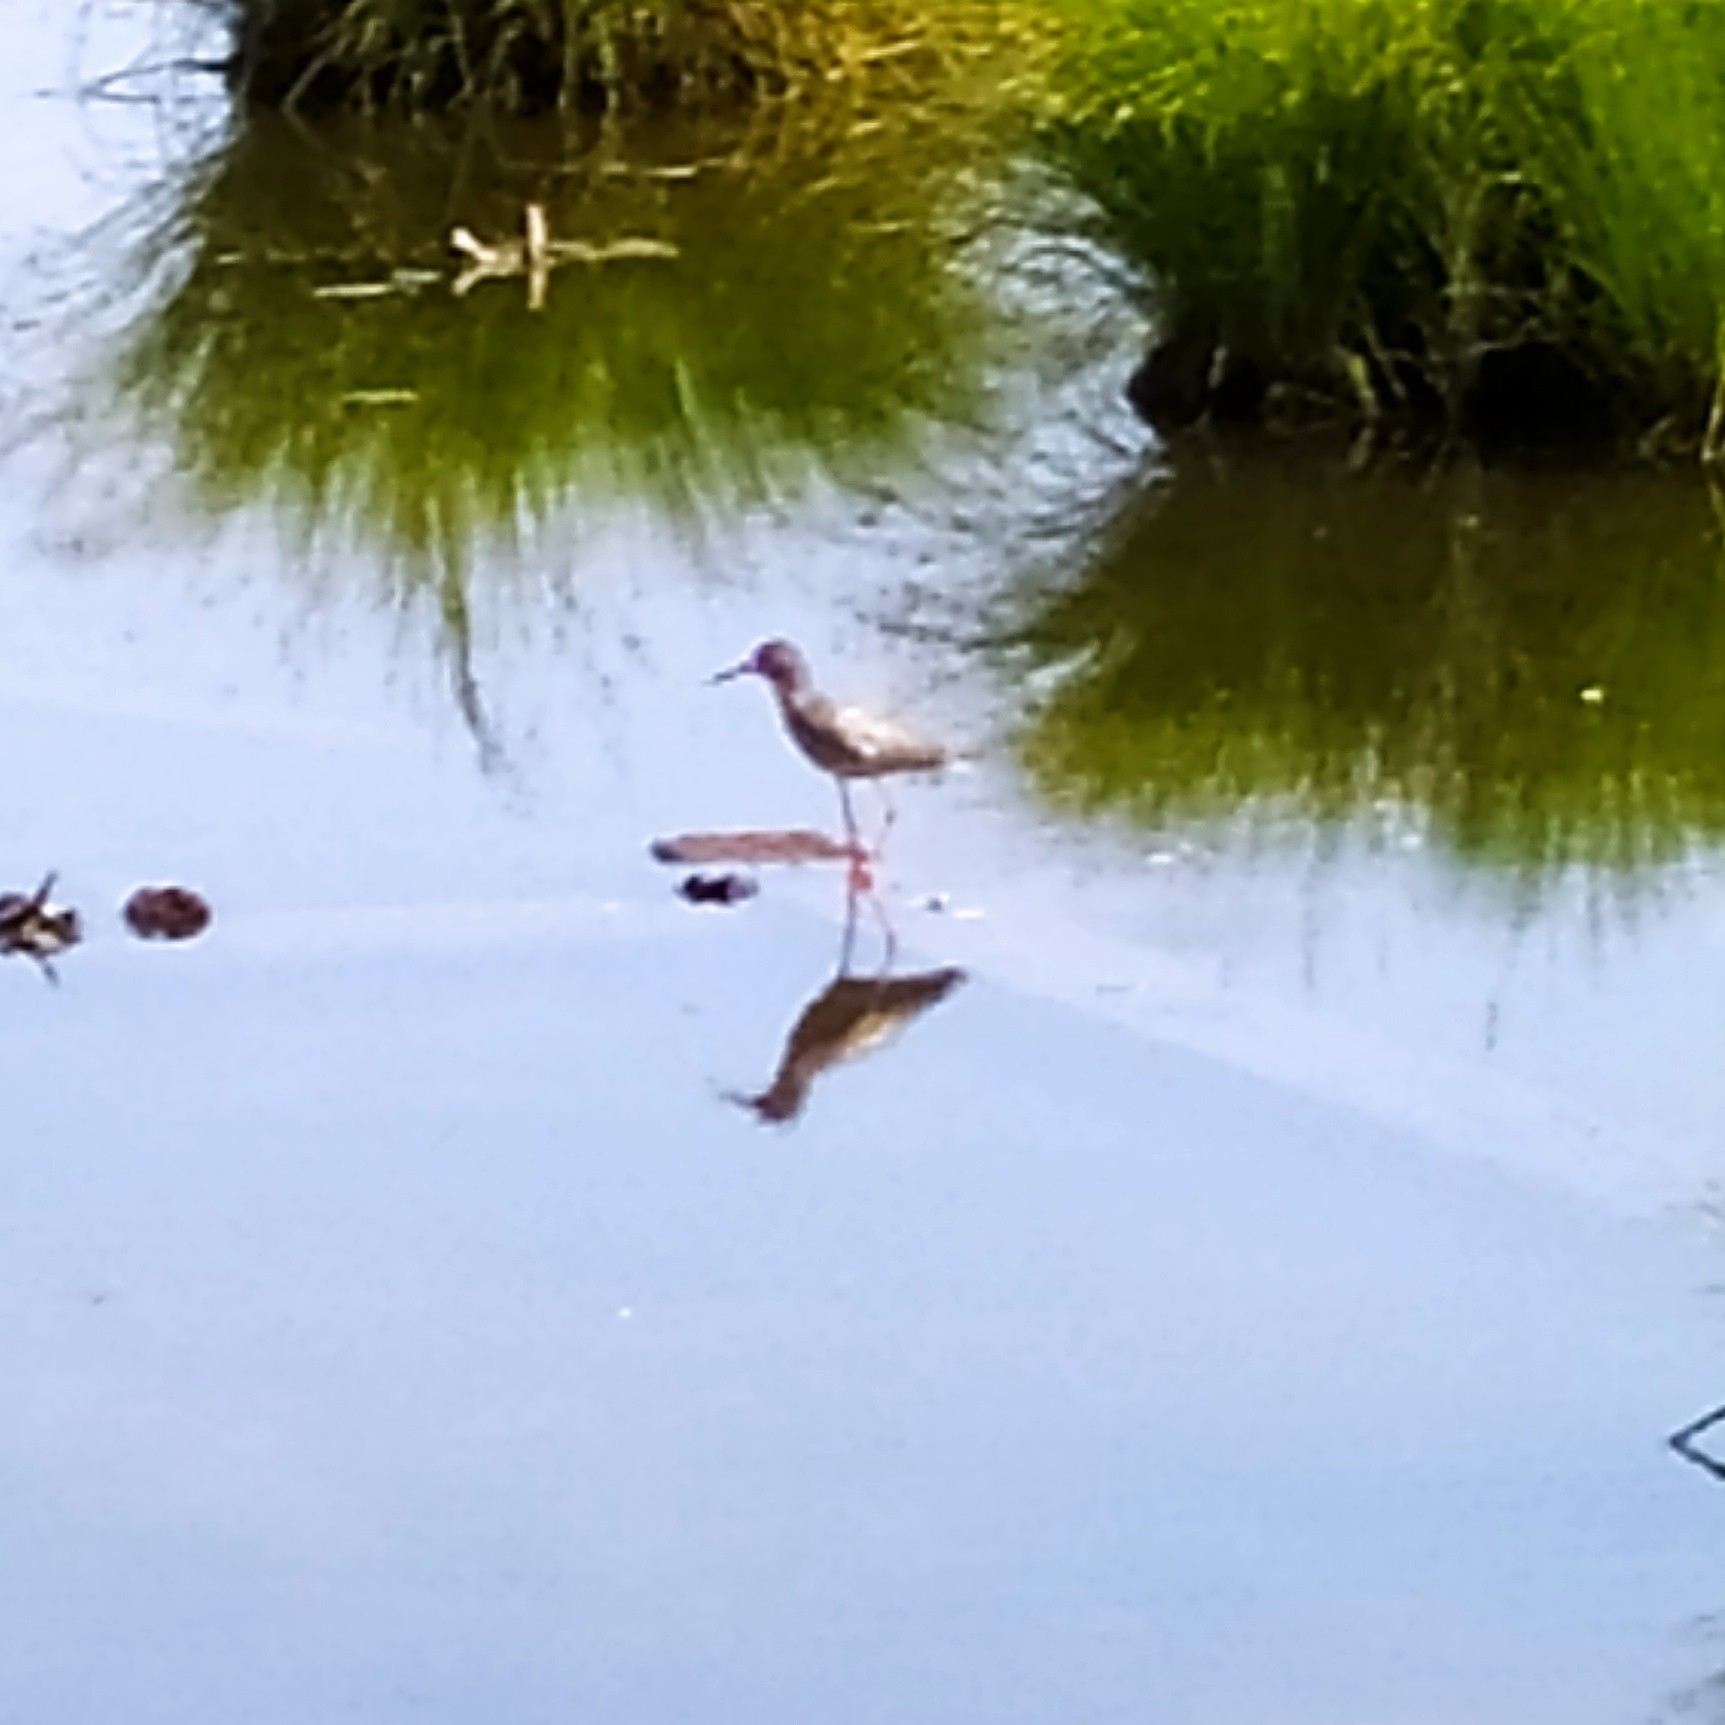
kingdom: Animalia
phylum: Chordata
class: Aves
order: Charadriiformes
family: Scolopacidae
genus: Tringa
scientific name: Tringa totanus
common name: Common redshank
